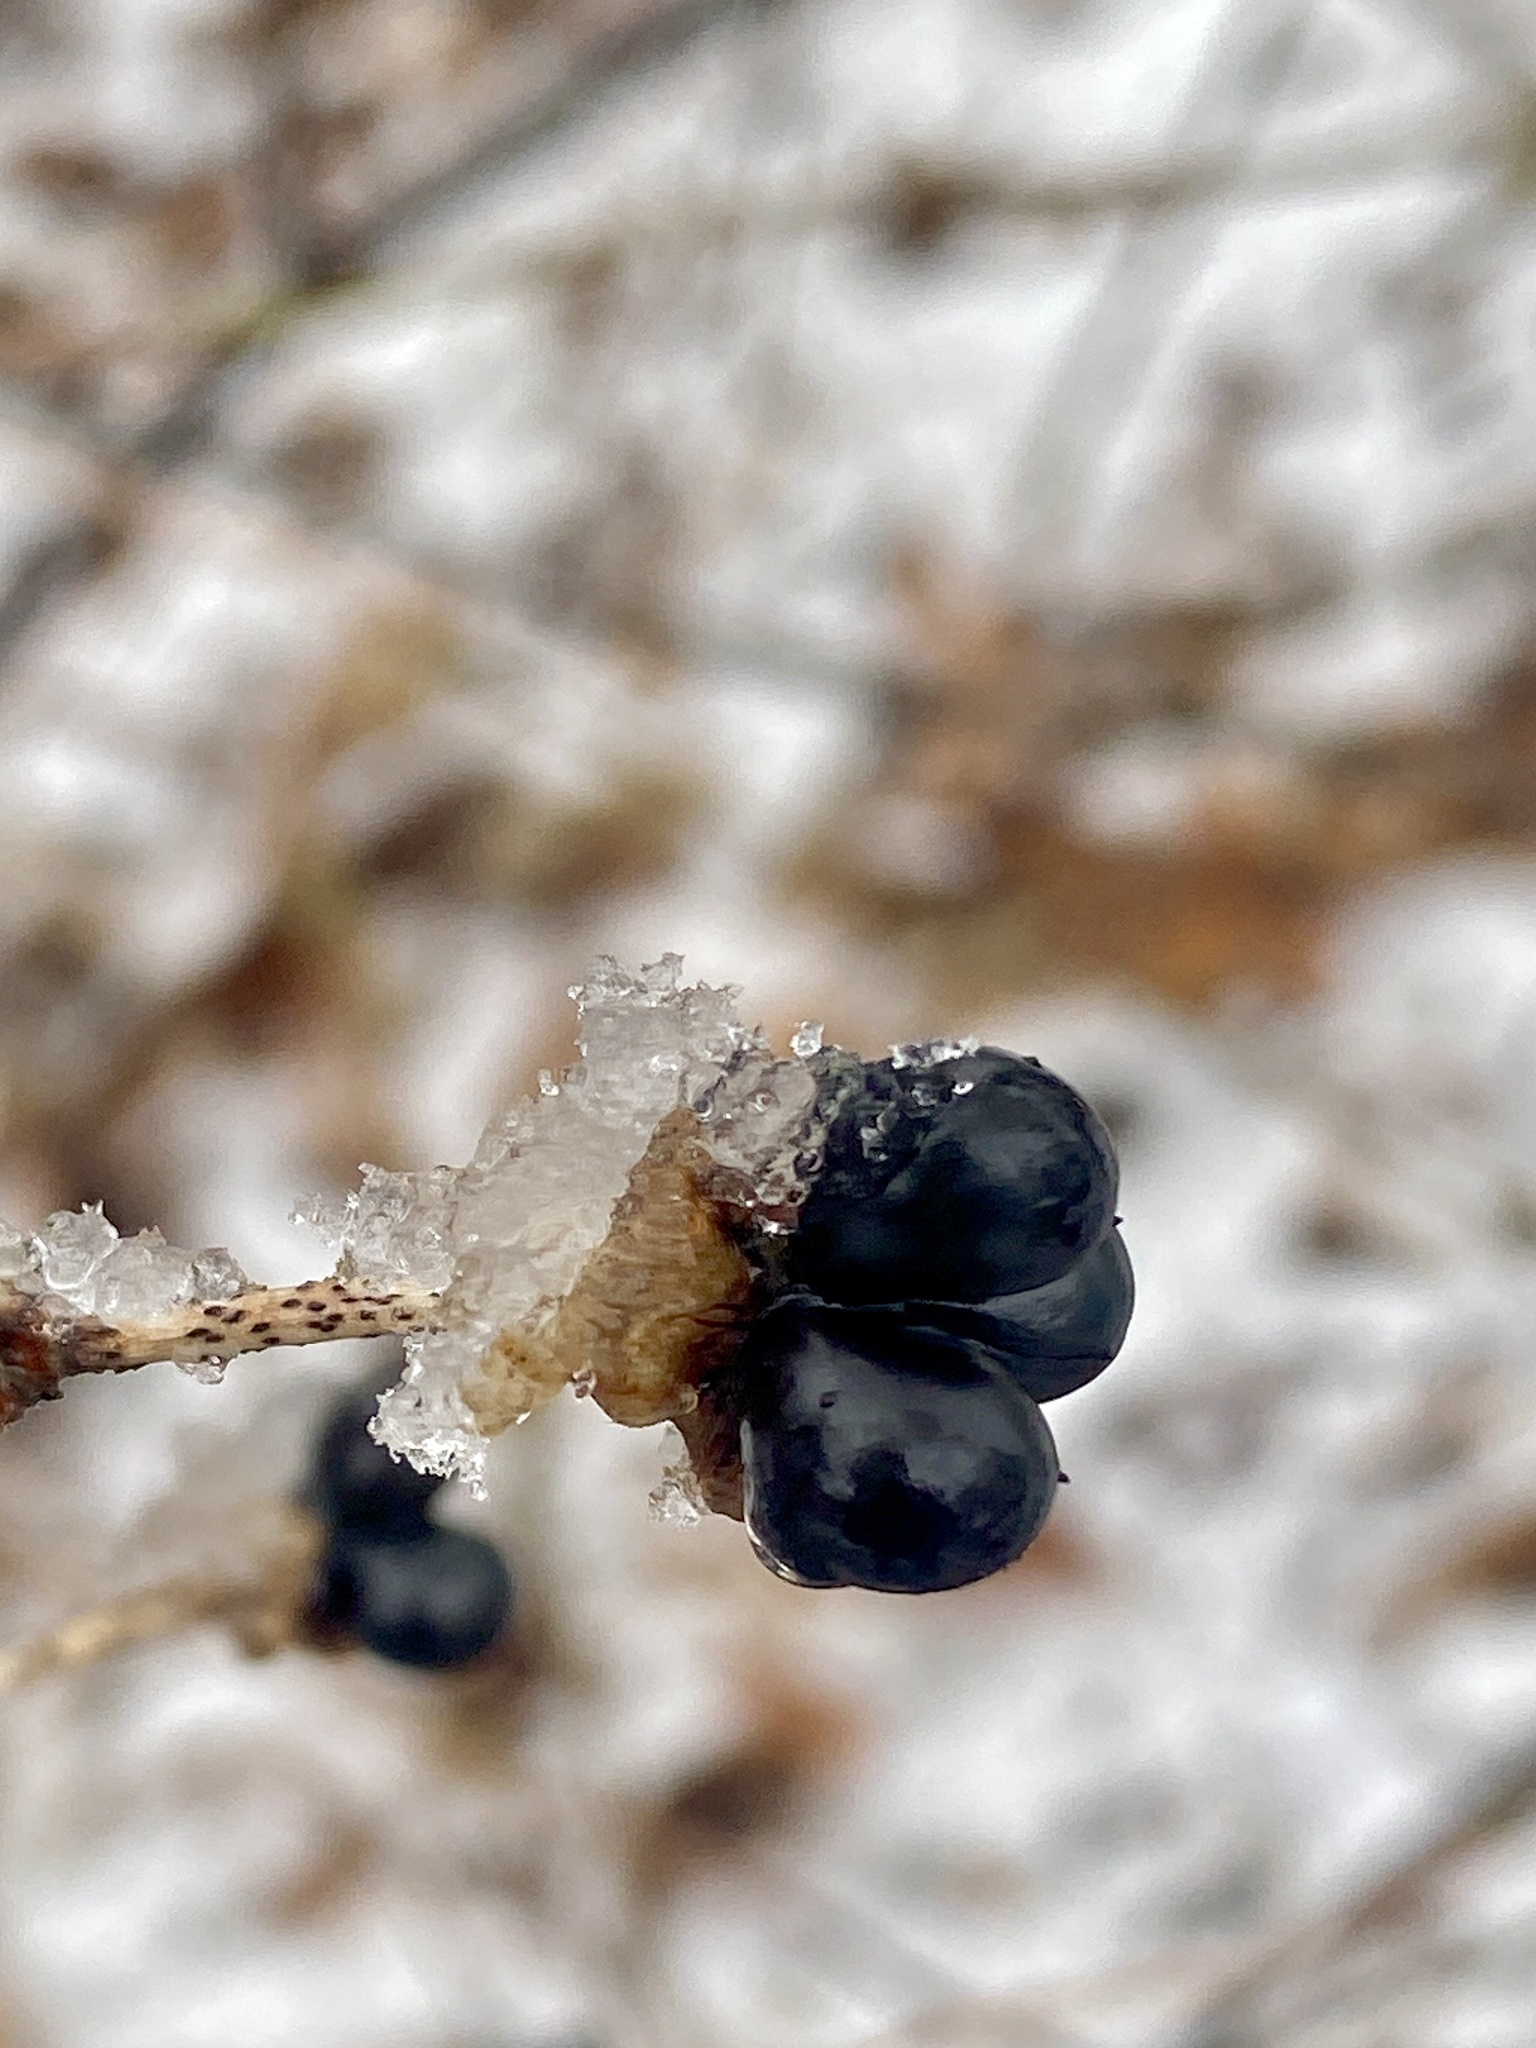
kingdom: Plantae
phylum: Tracheophyta
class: Magnoliopsida
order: Rosales
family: Rosaceae
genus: Rhodotypos
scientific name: Rhodotypos scandens
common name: Jetbead
